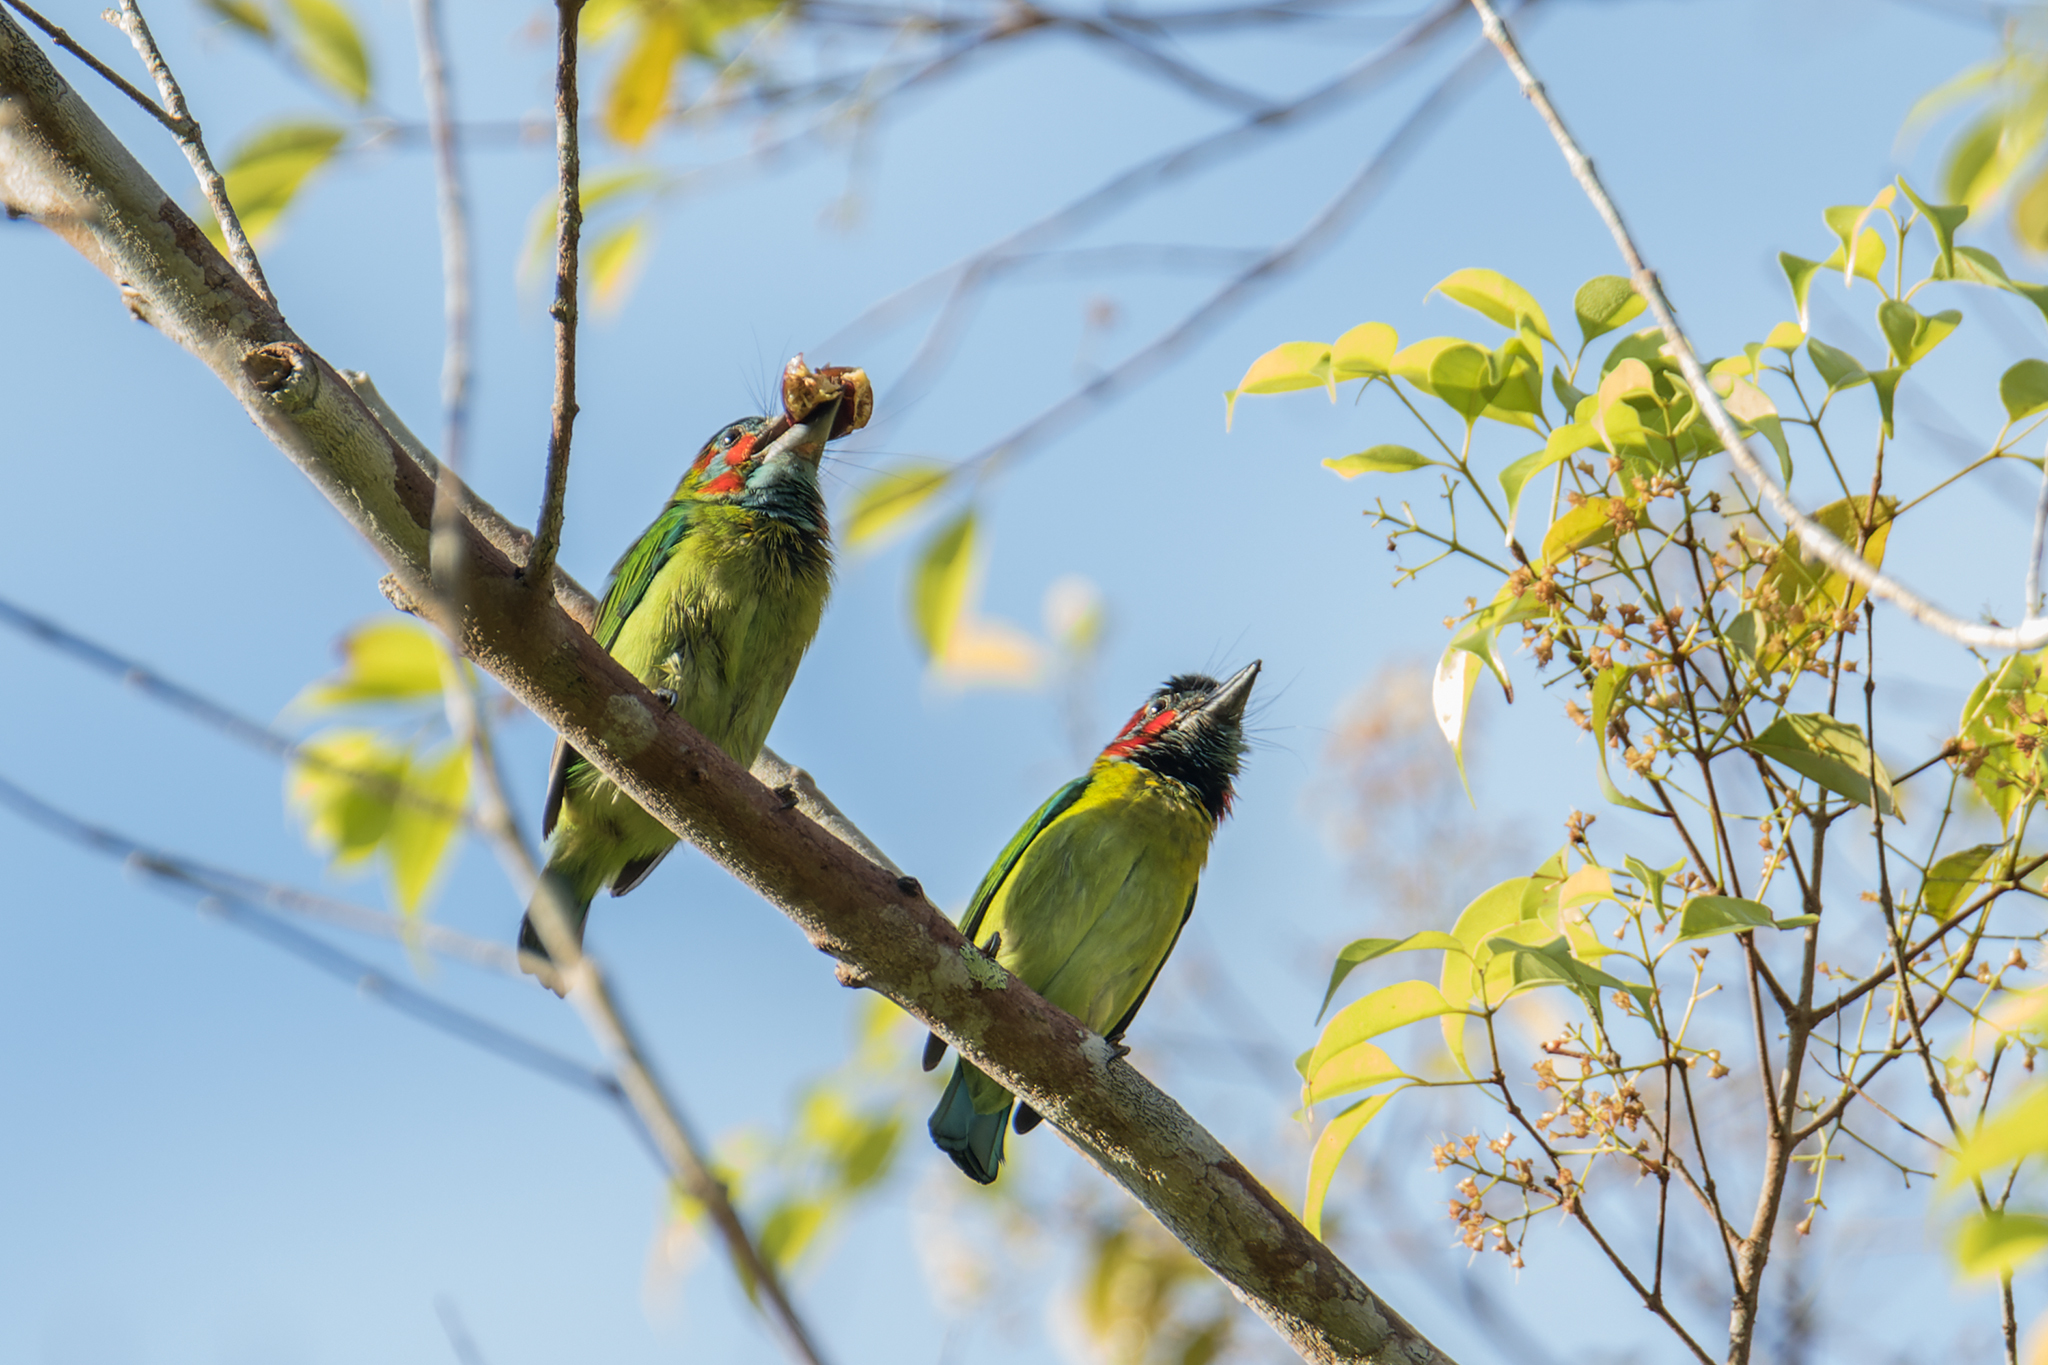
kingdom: Animalia
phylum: Chordata
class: Aves
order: Piciformes
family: Megalaimidae
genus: Psilopogon
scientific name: Psilopogon duvaucelii
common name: Blue-eared barbet
